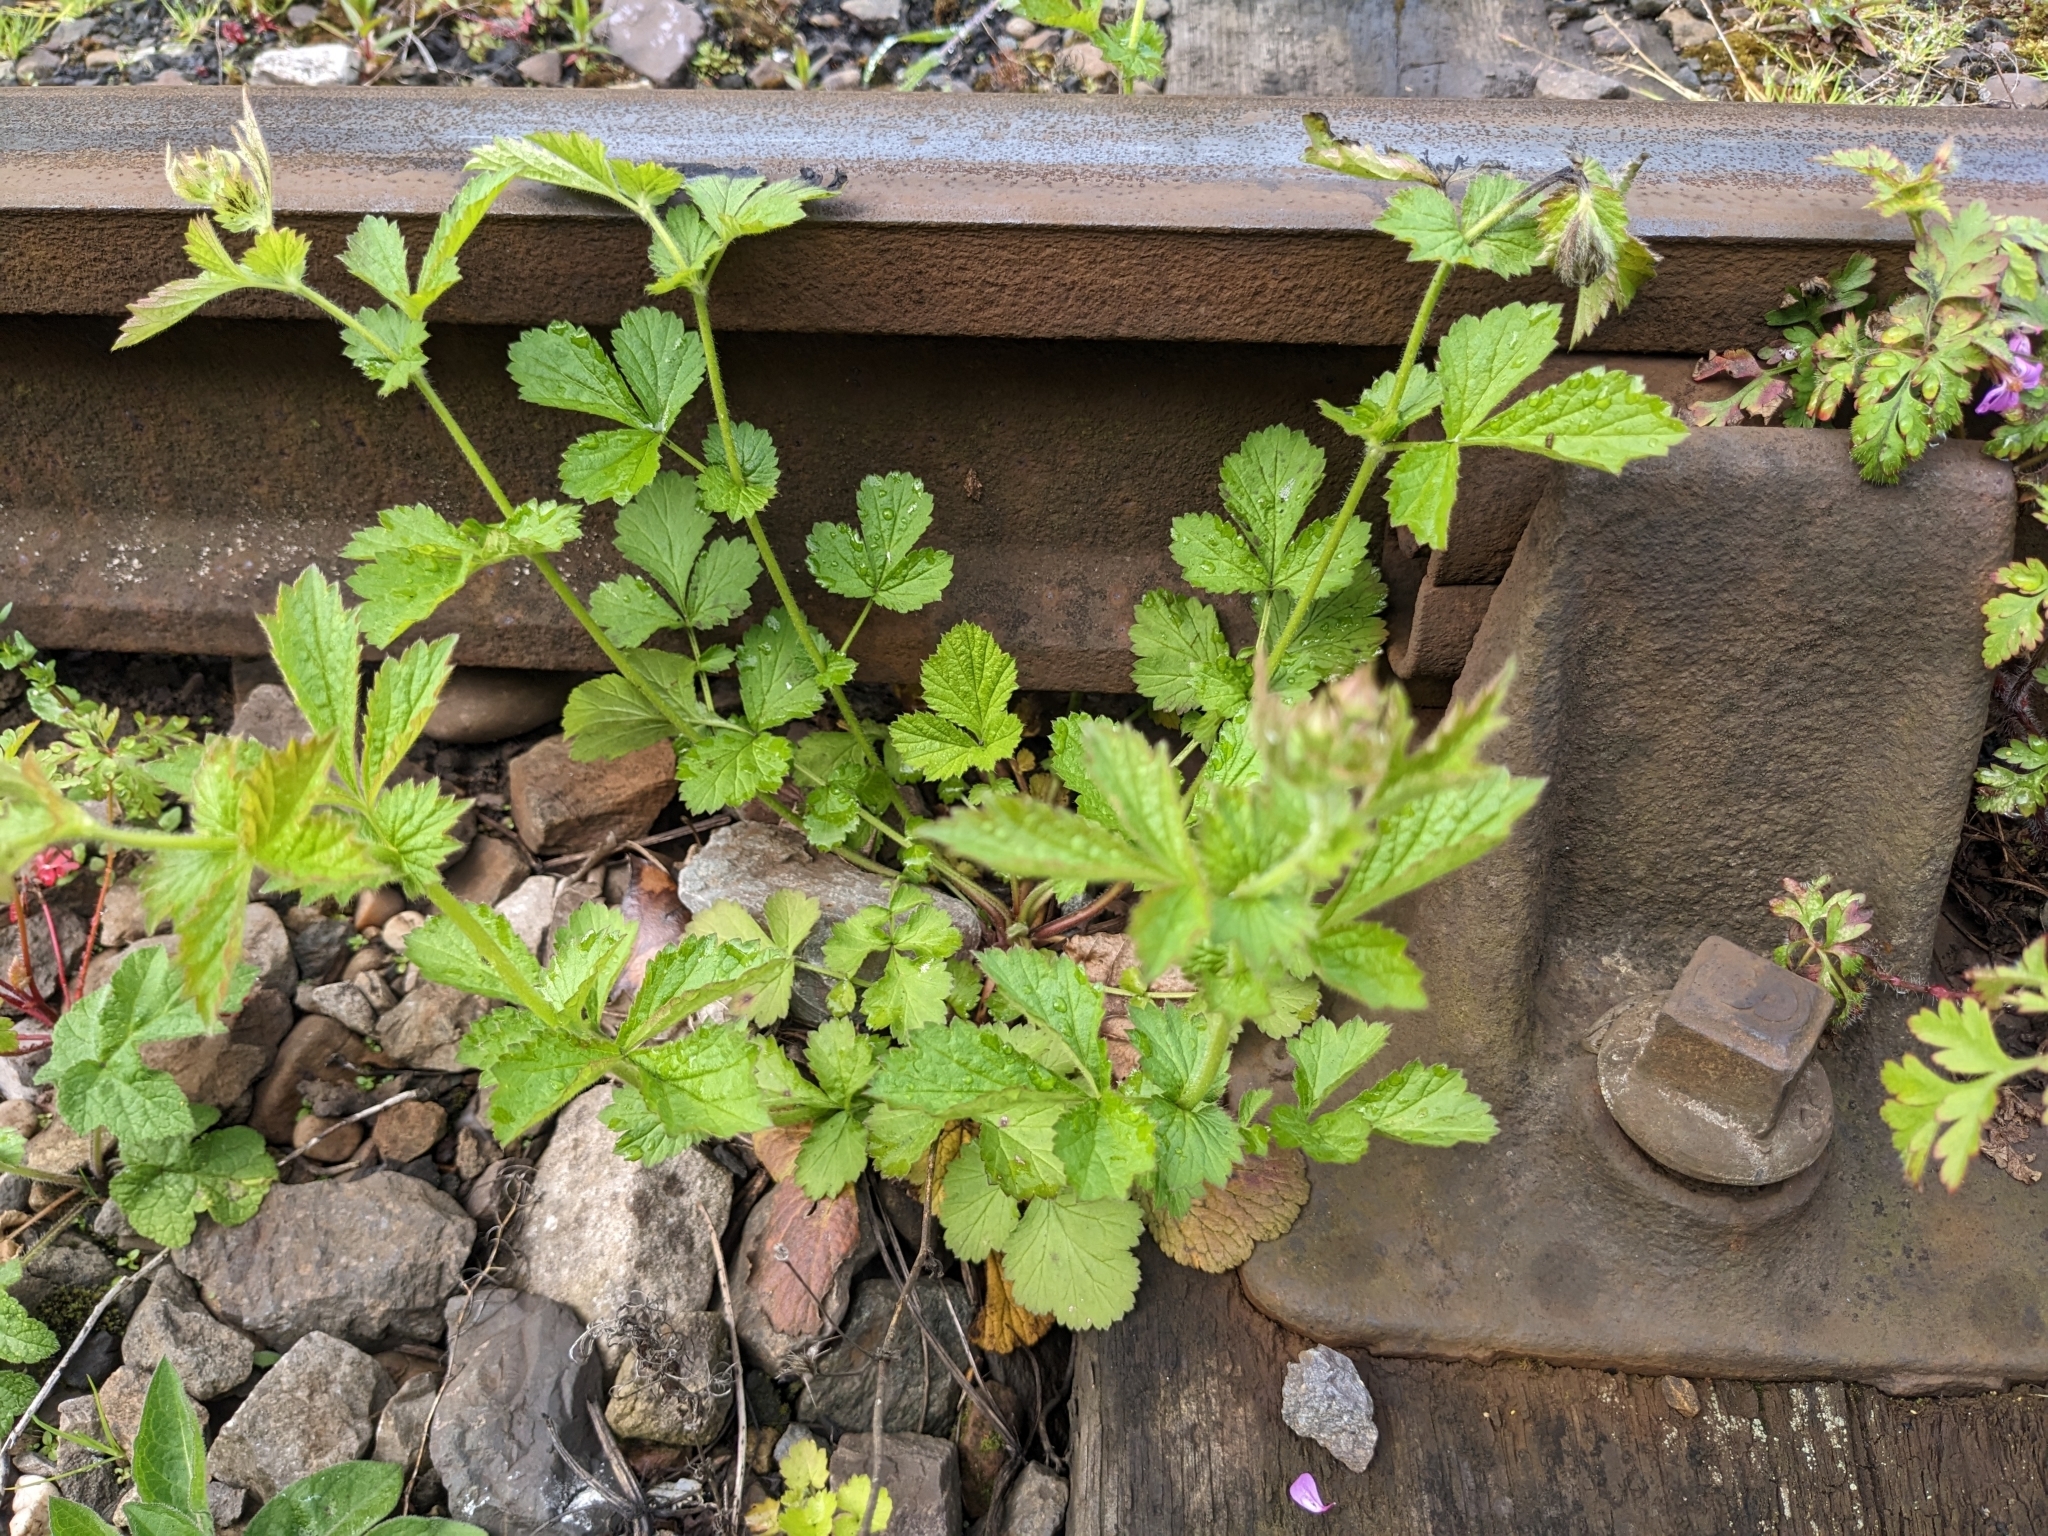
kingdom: Plantae
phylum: Tracheophyta
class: Magnoliopsida
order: Rosales
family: Rosaceae
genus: Geum
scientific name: Geum urbanum
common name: Wood avens
